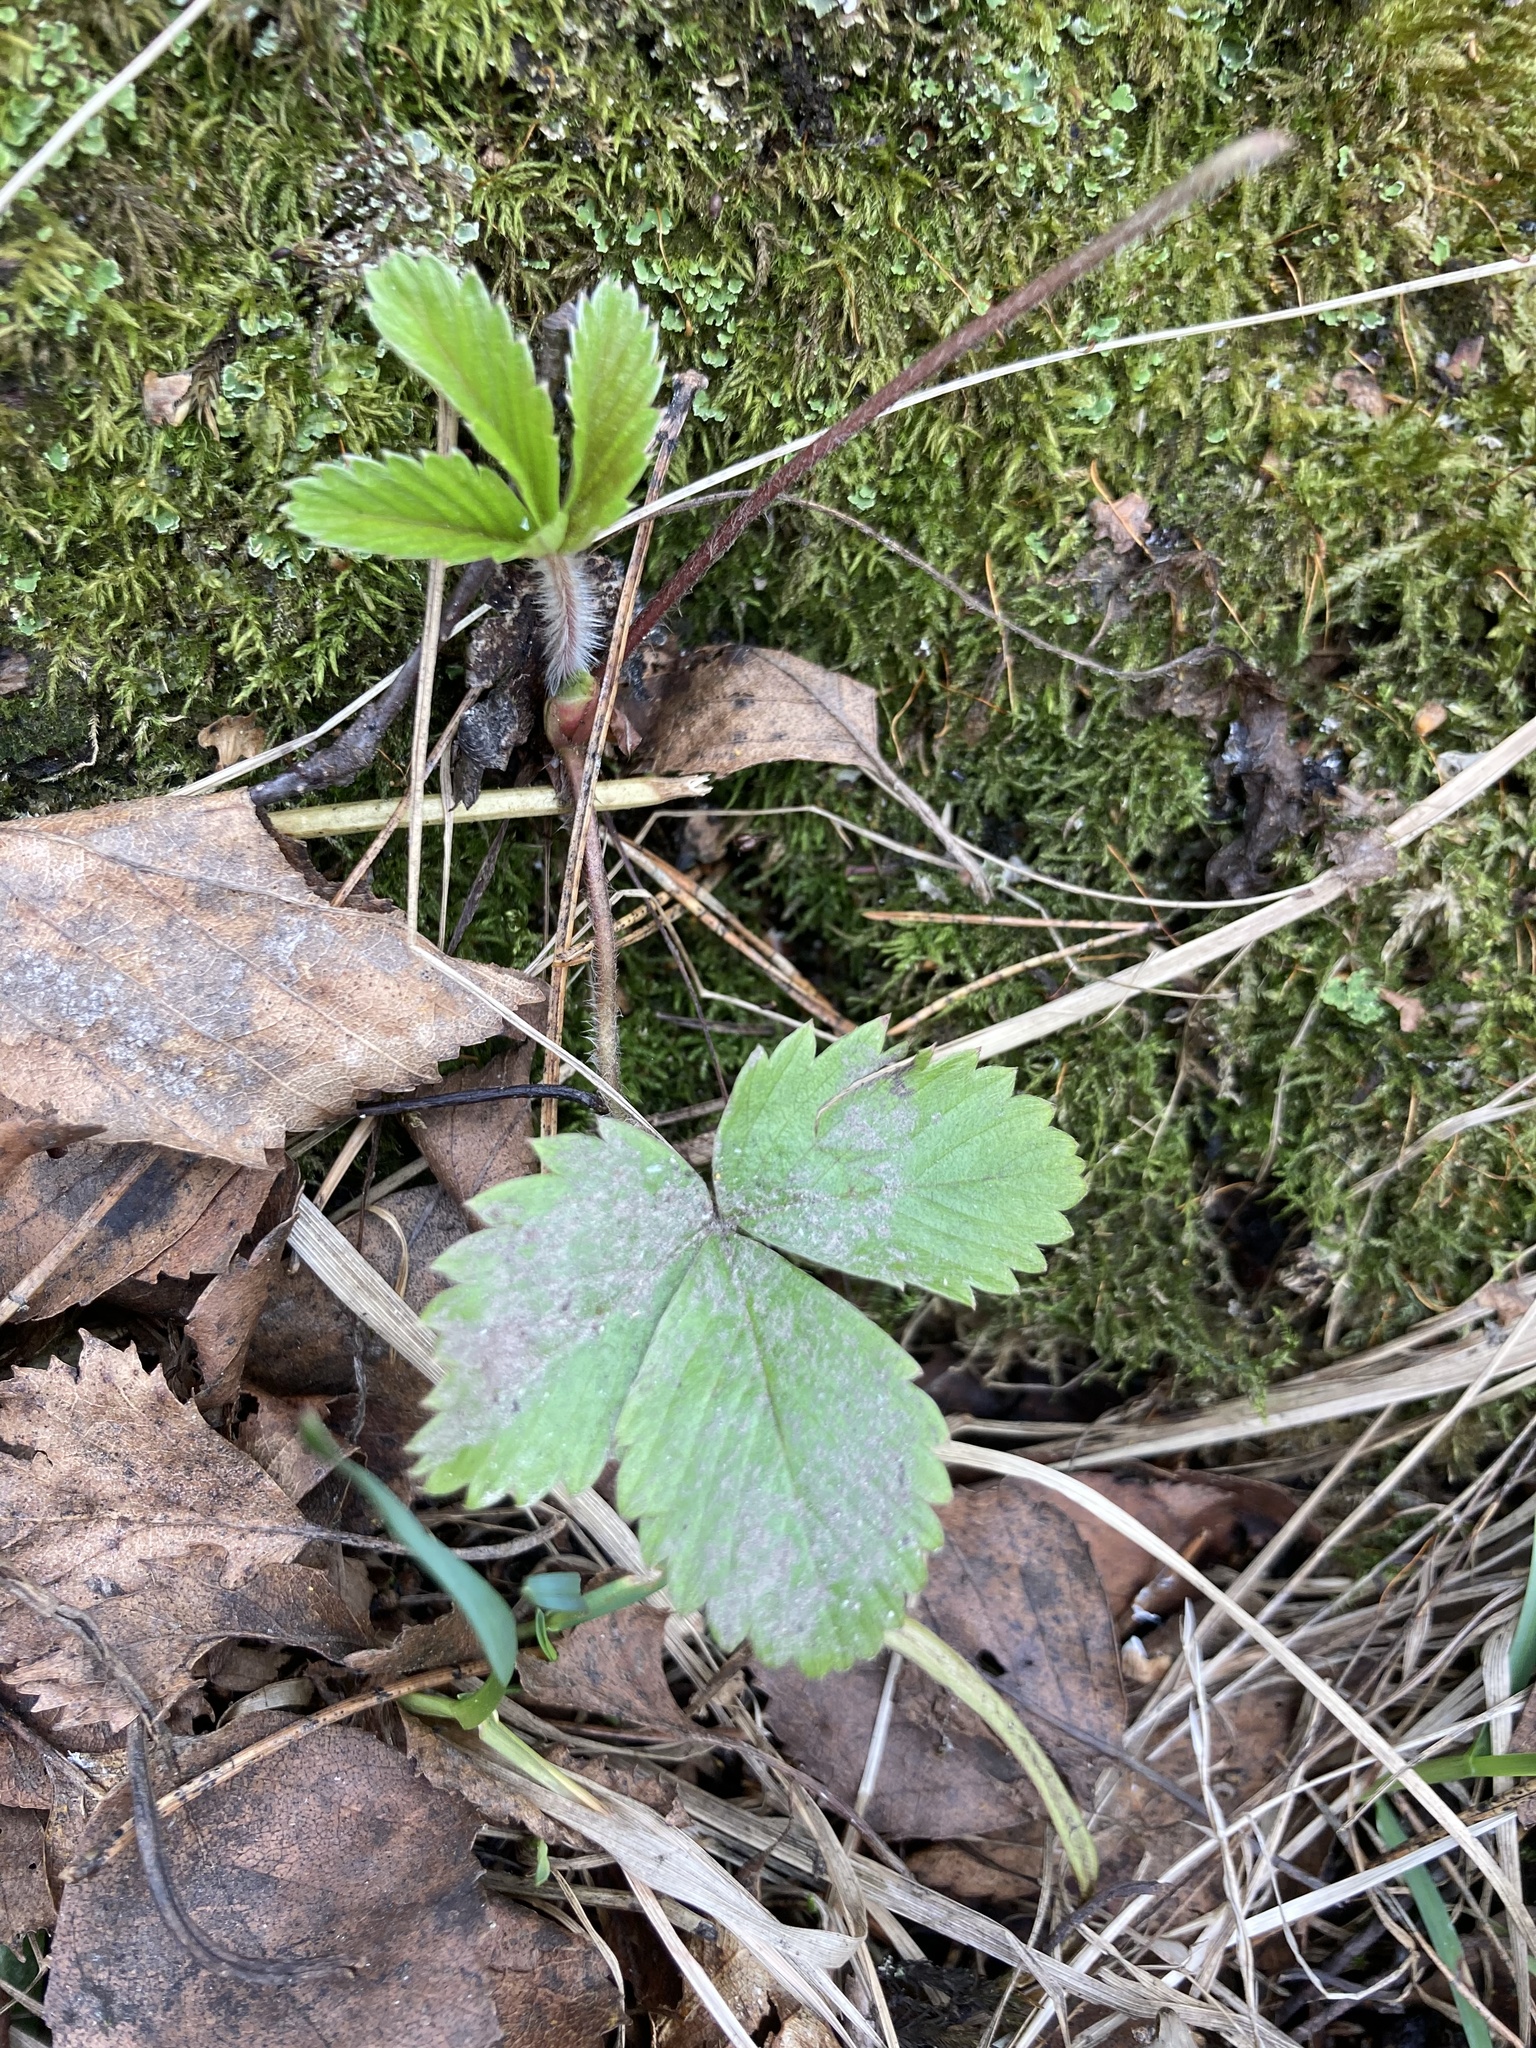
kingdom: Plantae
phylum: Tracheophyta
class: Magnoliopsida
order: Rosales
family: Rosaceae
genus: Fragaria
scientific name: Fragaria vesca
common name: Wild strawberry
